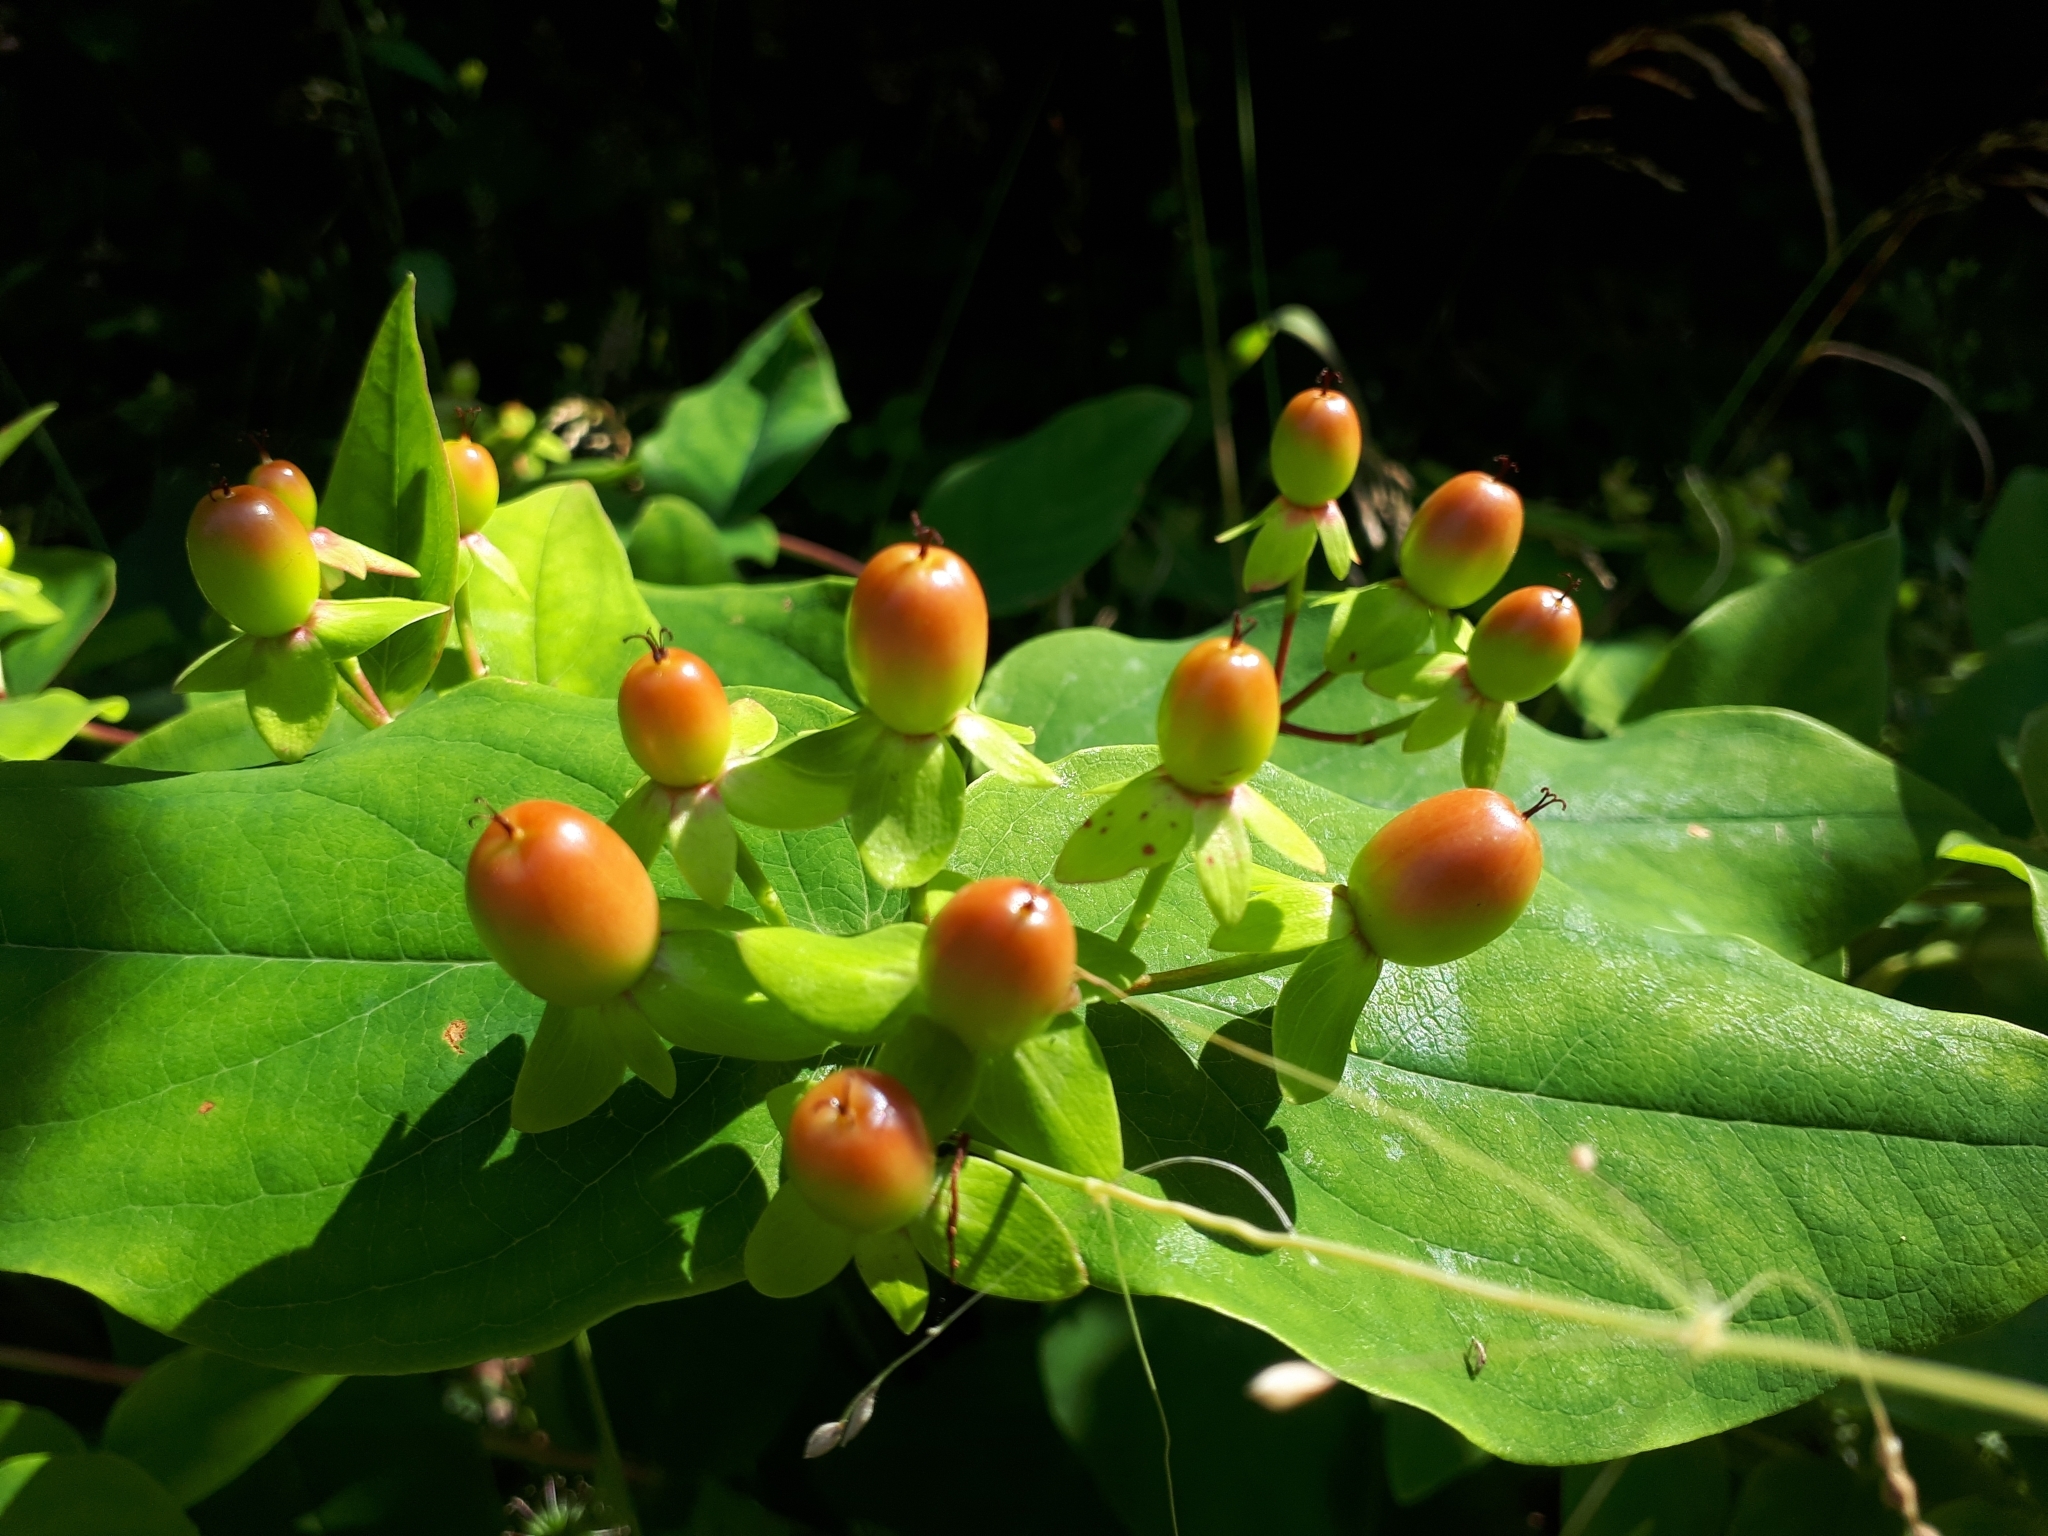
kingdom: Plantae
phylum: Tracheophyta
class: Magnoliopsida
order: Malpighiales
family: Hypericaceae
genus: Hypericum
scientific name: Hypericum androsaemum
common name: Sweet-amber
